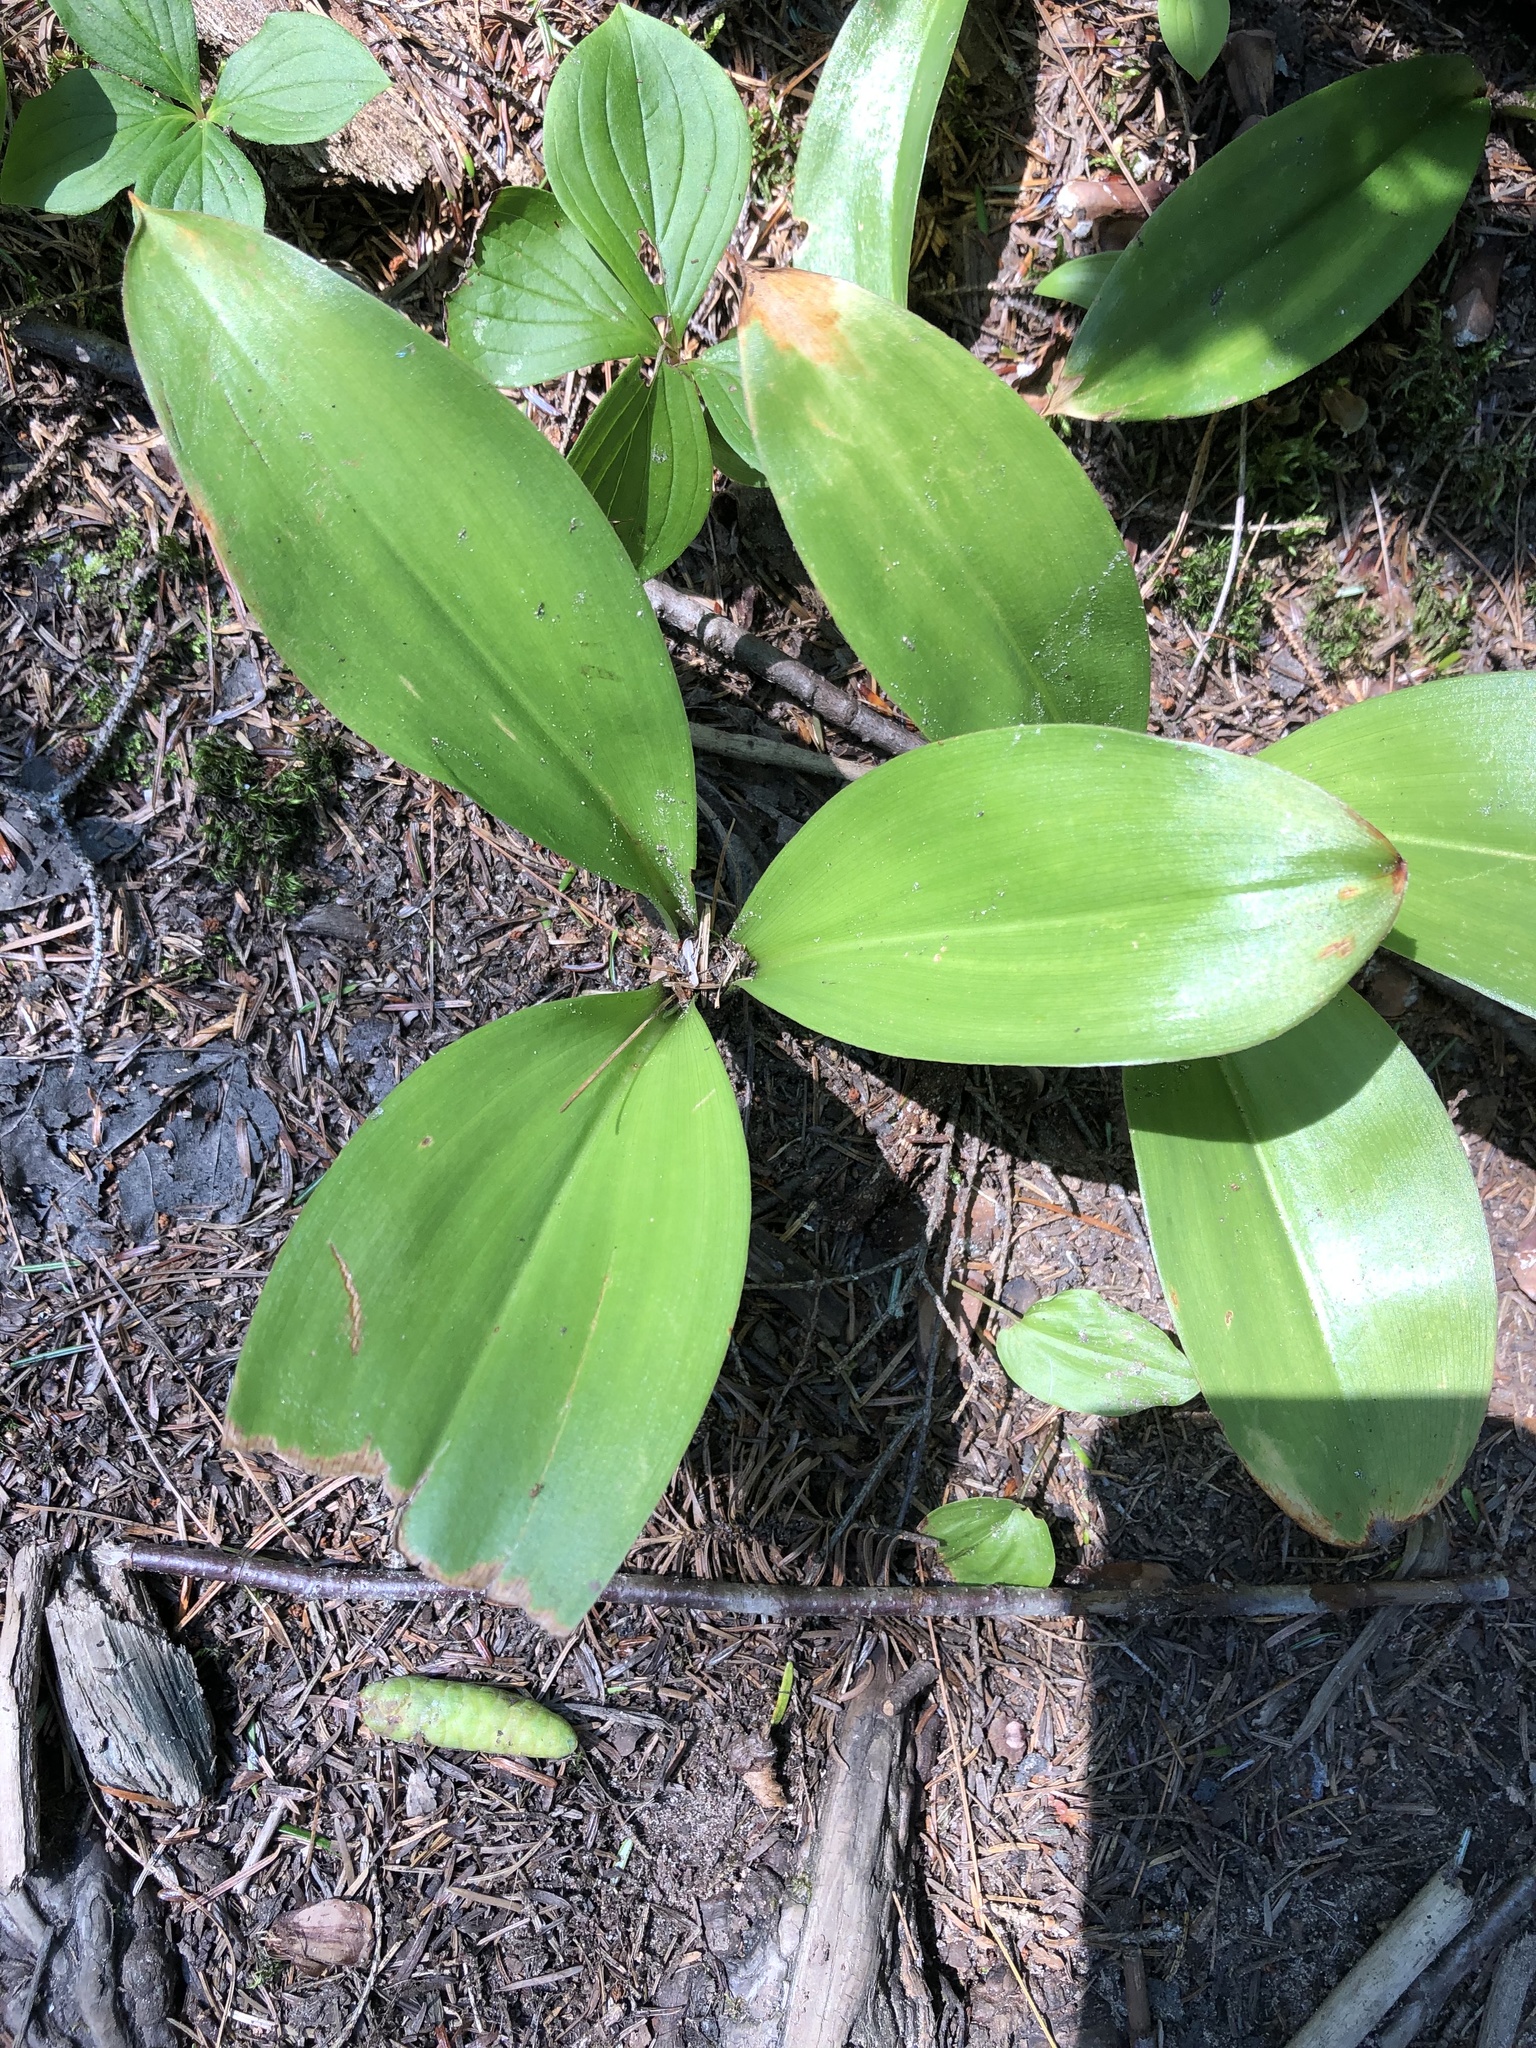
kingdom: Plantae
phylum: Tracheophyta
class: Liliopsida
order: Liliales
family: Liliaceae
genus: Clintonia
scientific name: Clintonia borealis
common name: Yellow clintonia
